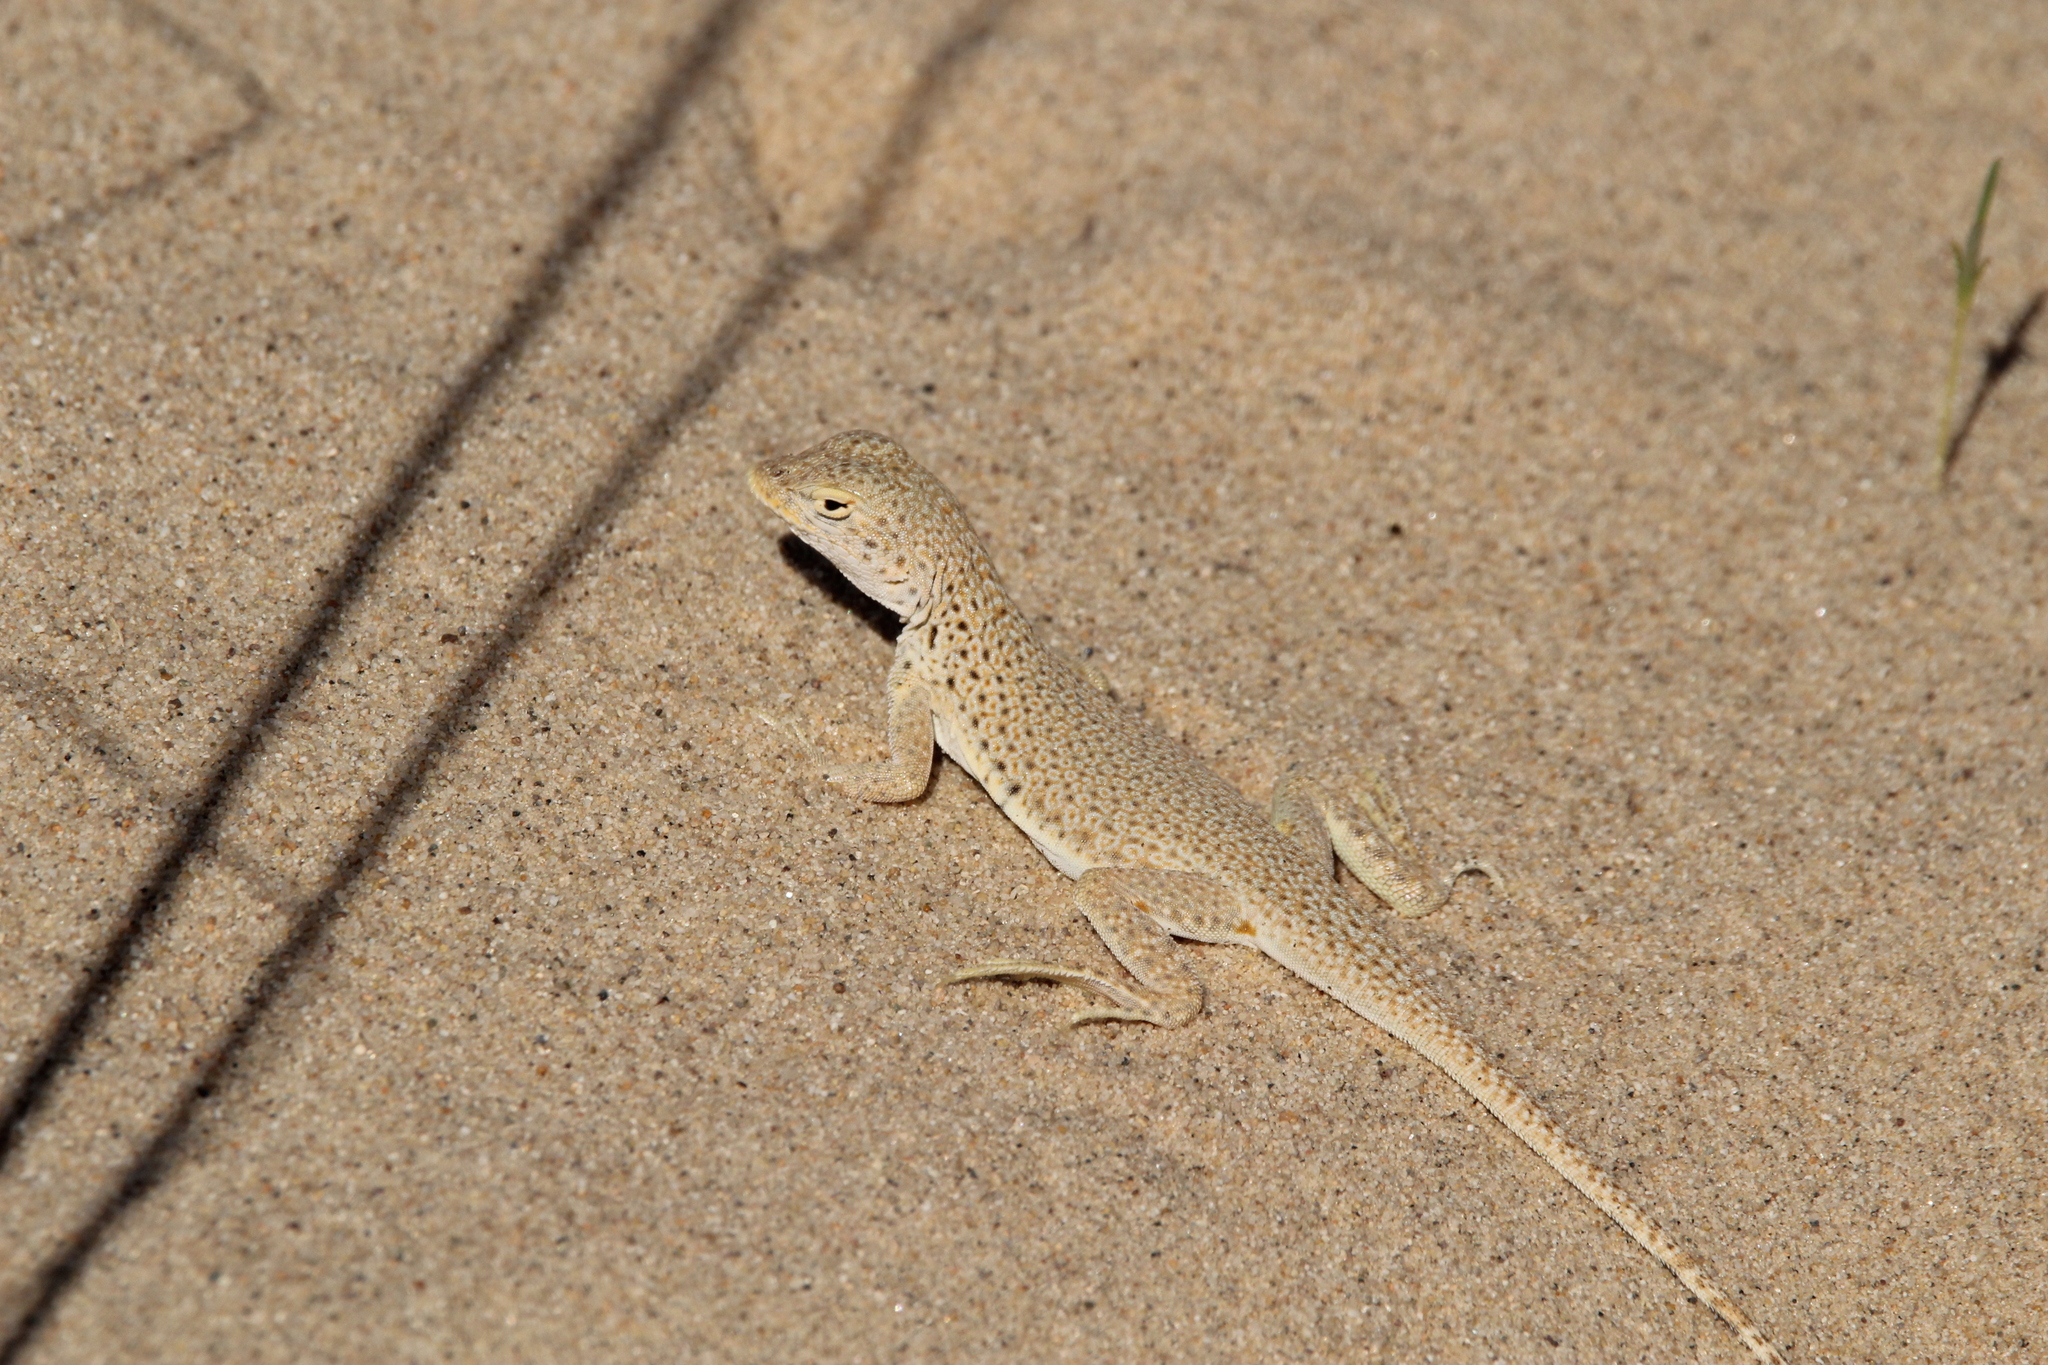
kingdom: Animalia
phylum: Chordata
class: Squamata
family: Phrynosomatidae
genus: Uma
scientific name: Uma scoparia
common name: Mojave fringe-toed lizard
